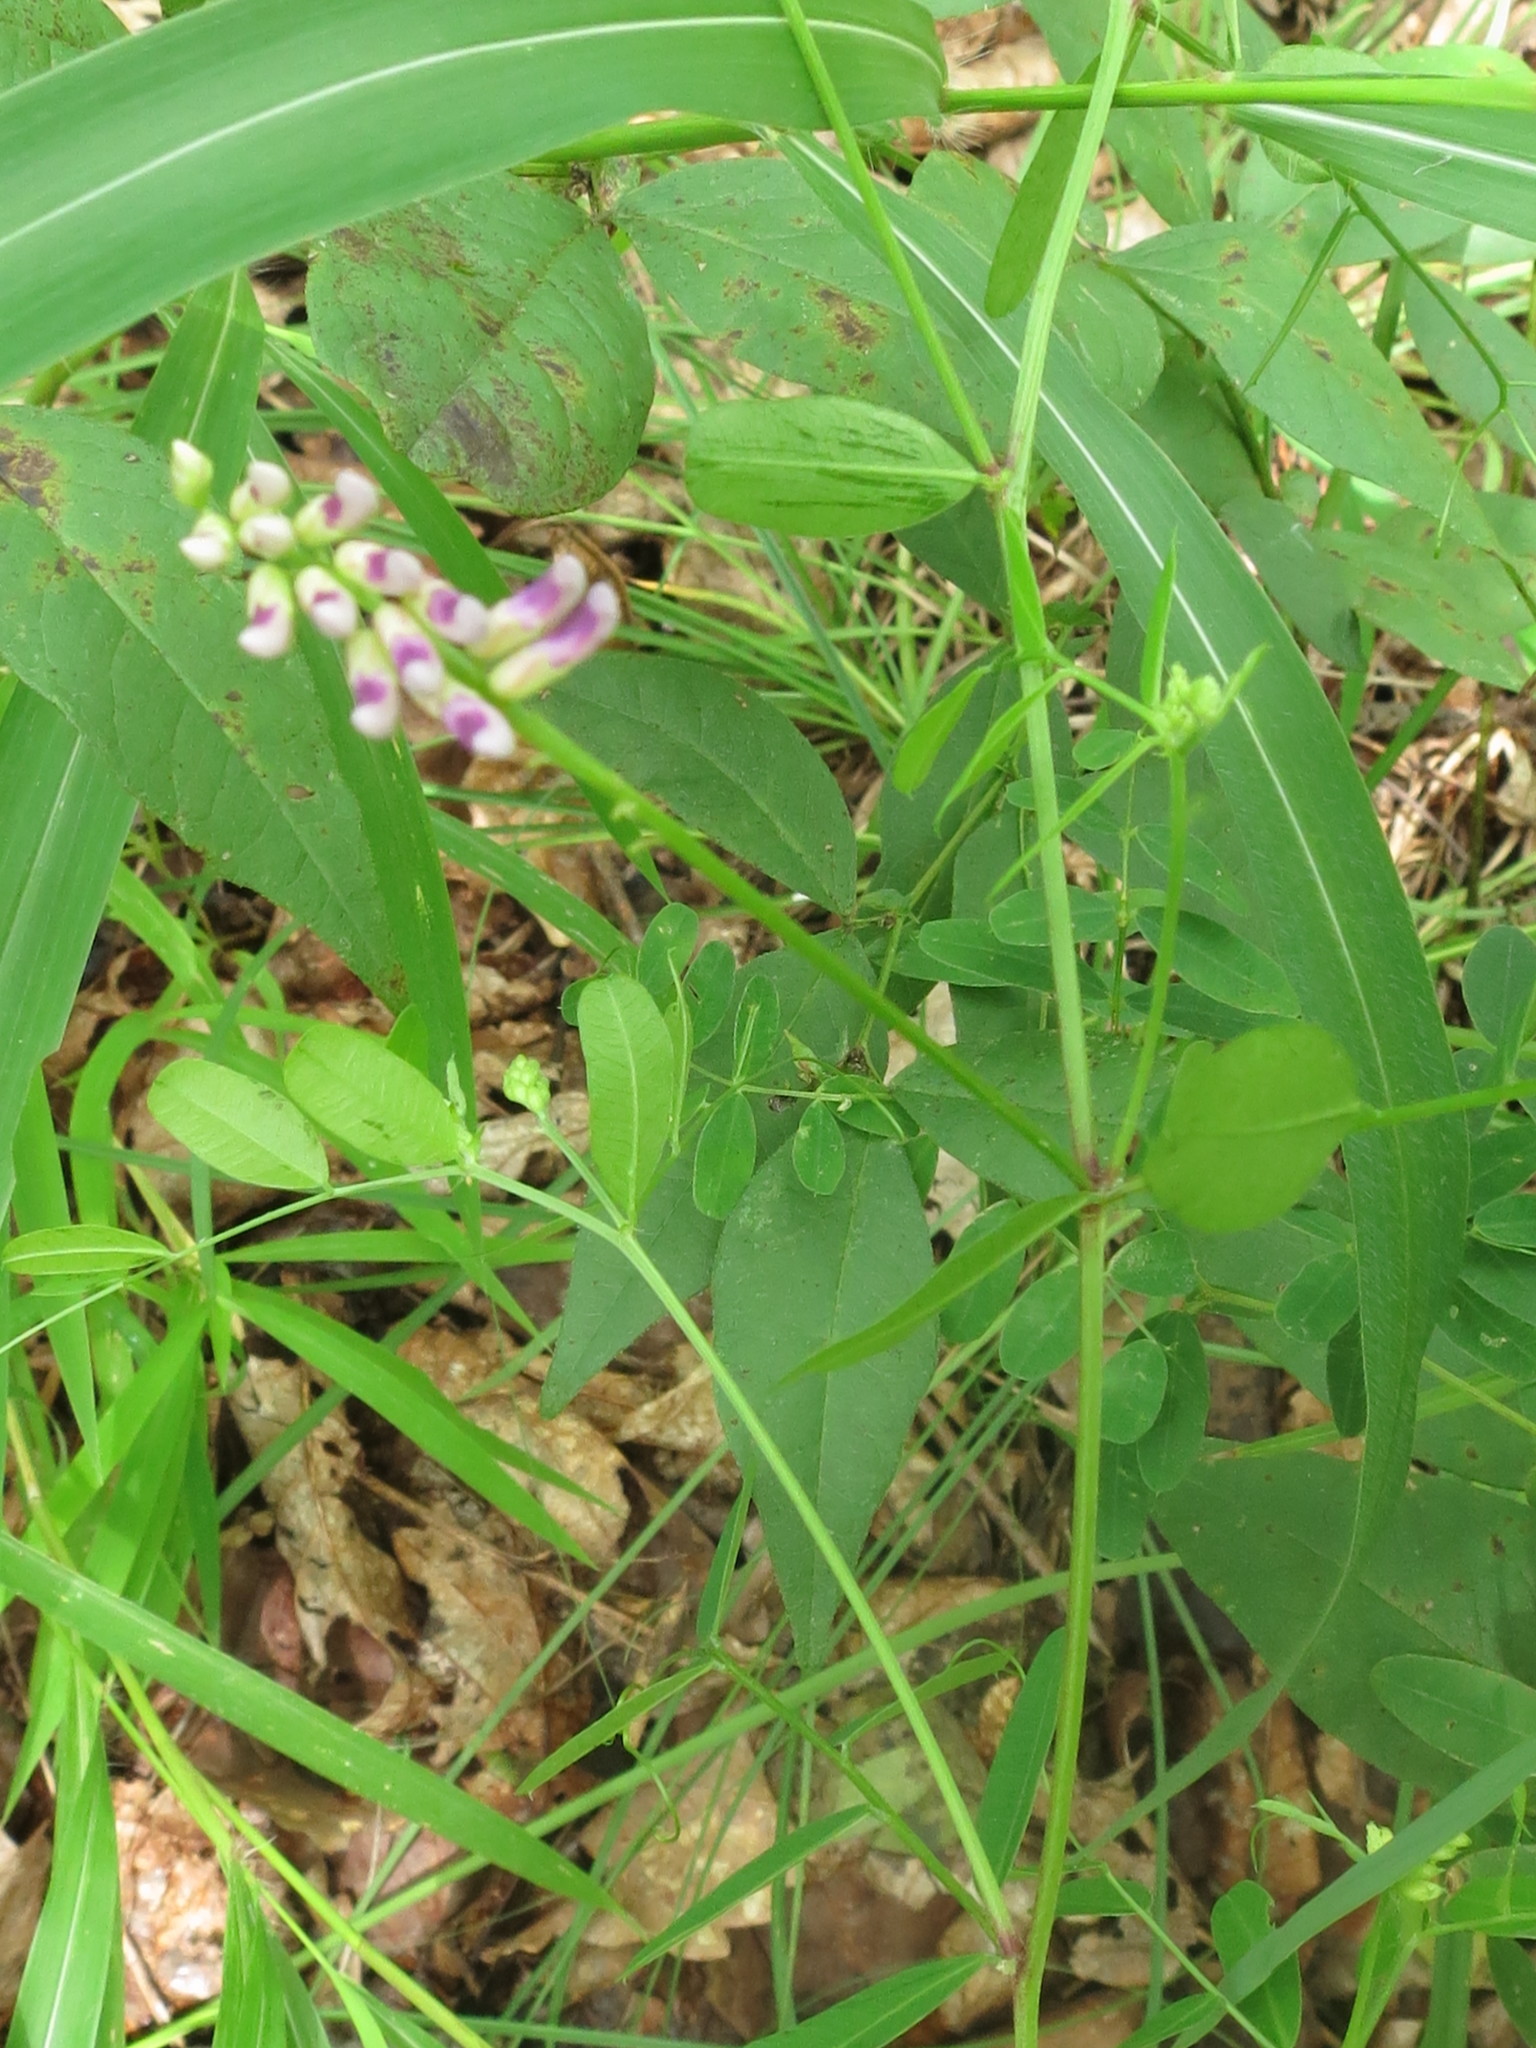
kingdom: Plantae
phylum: Tracheophyta
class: Magnoliopsida
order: Fabales
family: Fabaceae
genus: Vicia
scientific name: Vicia amurensis
